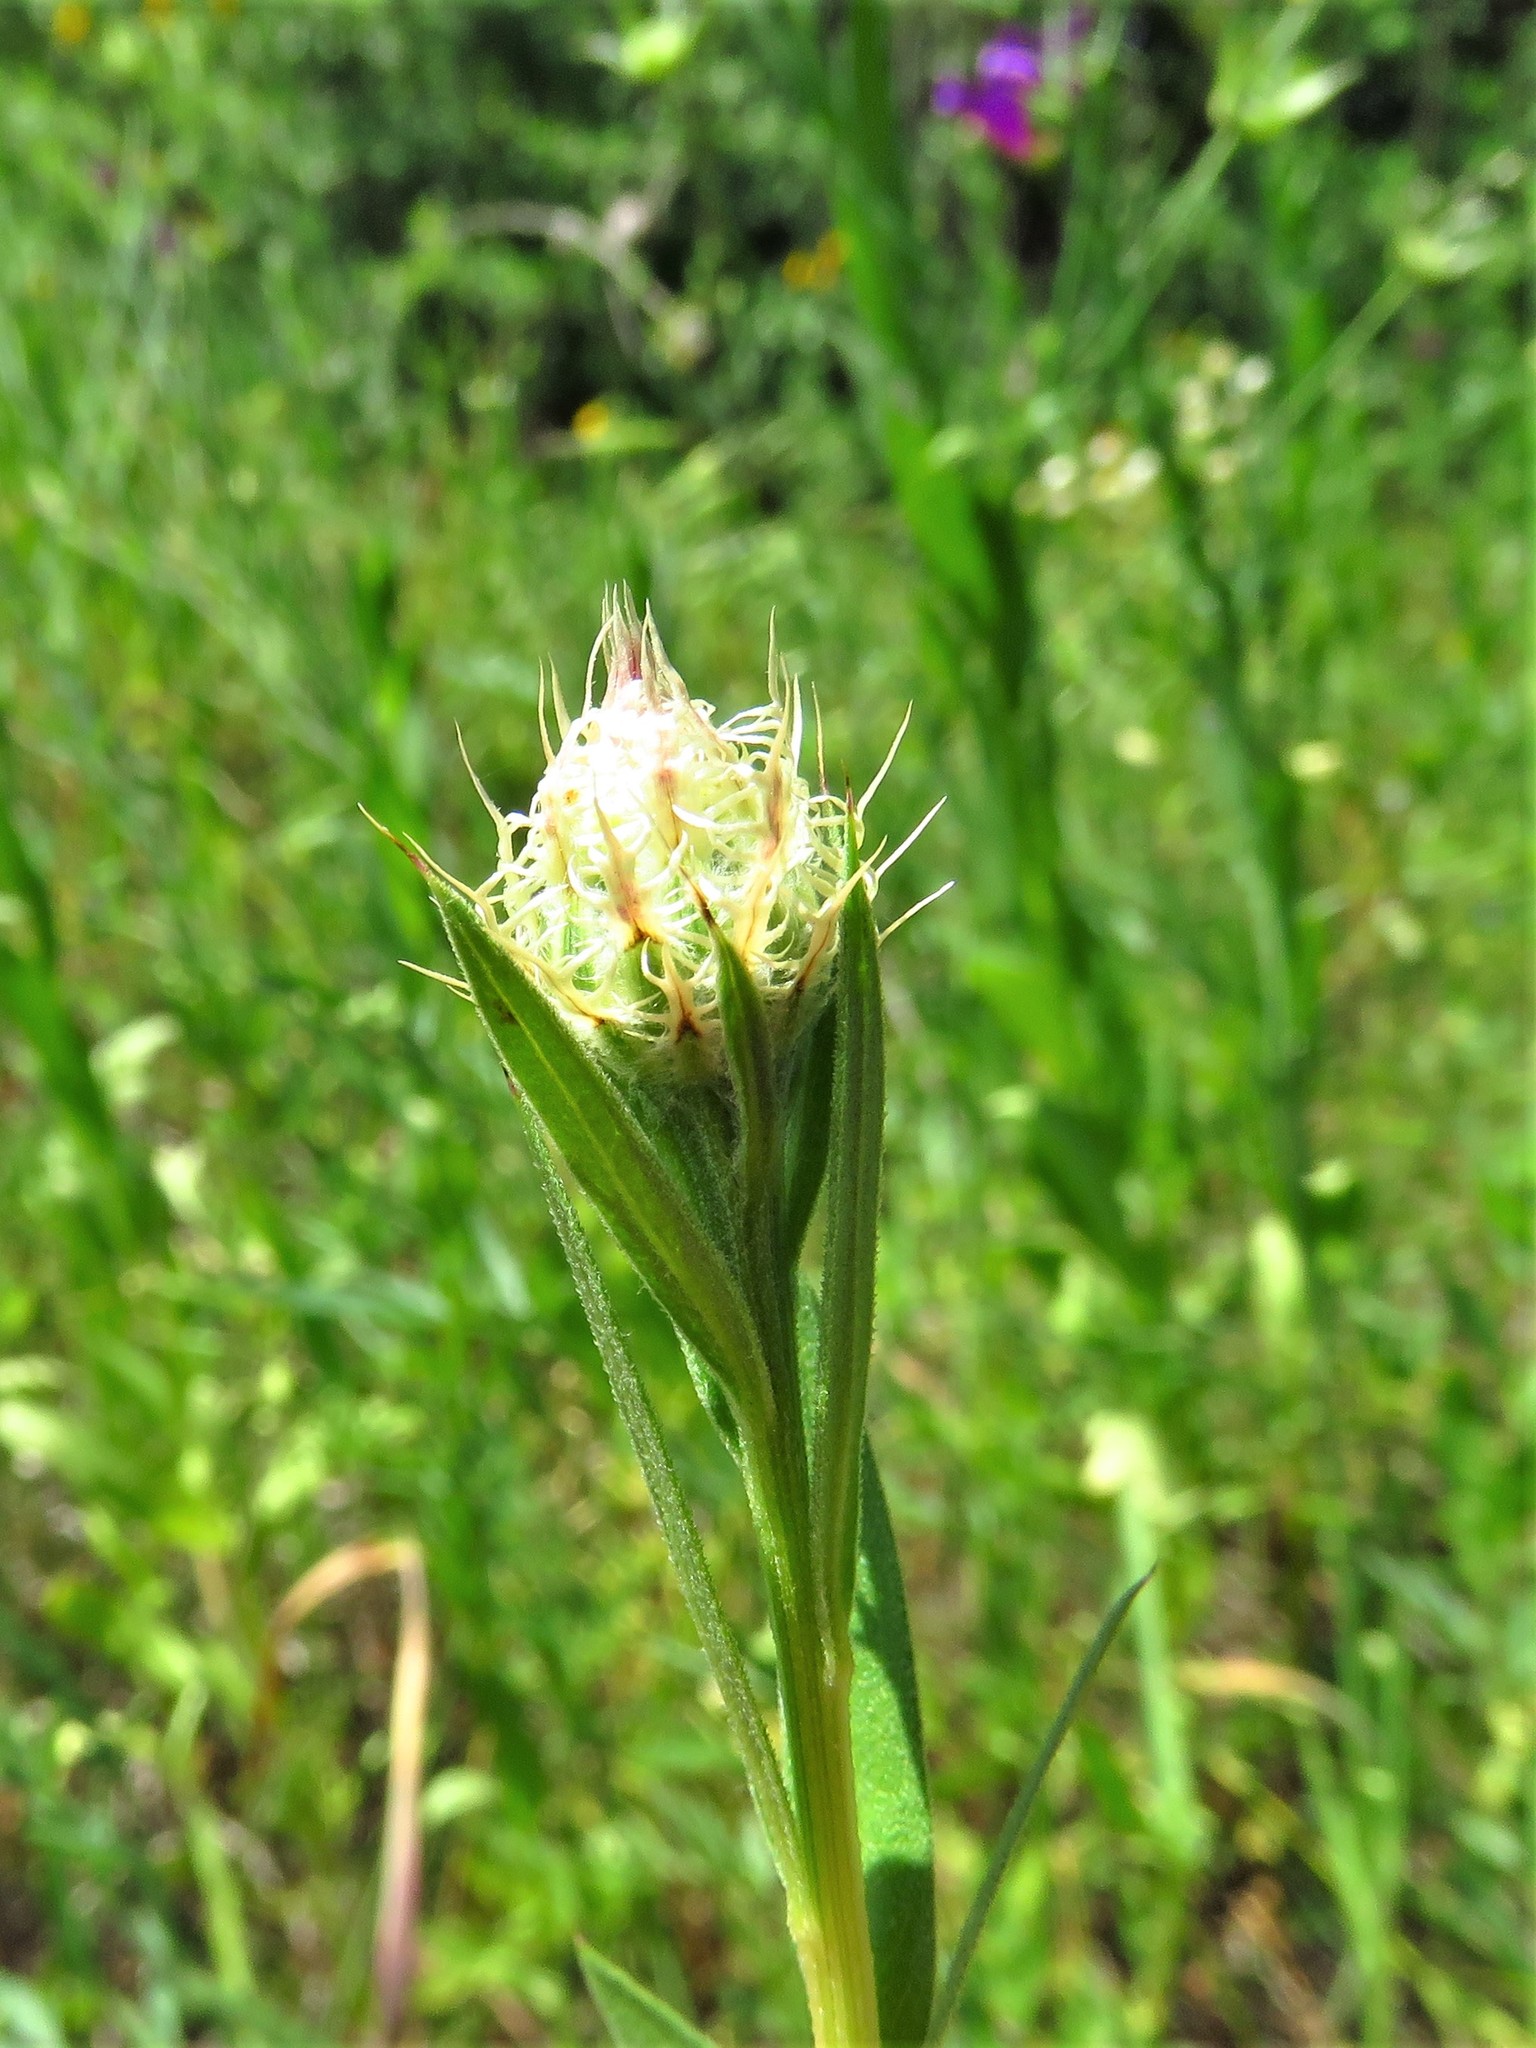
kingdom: Plantae
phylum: Tracheophyta
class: Magnoliopsida
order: Asterales
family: Asteraceae
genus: Plectocephalus
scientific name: Plectocephalus americanus
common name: American basket-flower
